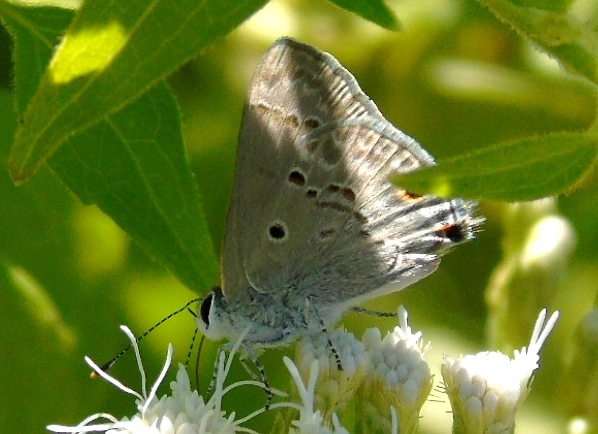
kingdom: Animalia
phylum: Arthropoda
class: Insecta
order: Lepidoptera
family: Lycaenidae
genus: Callicista
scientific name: Callicista columella
